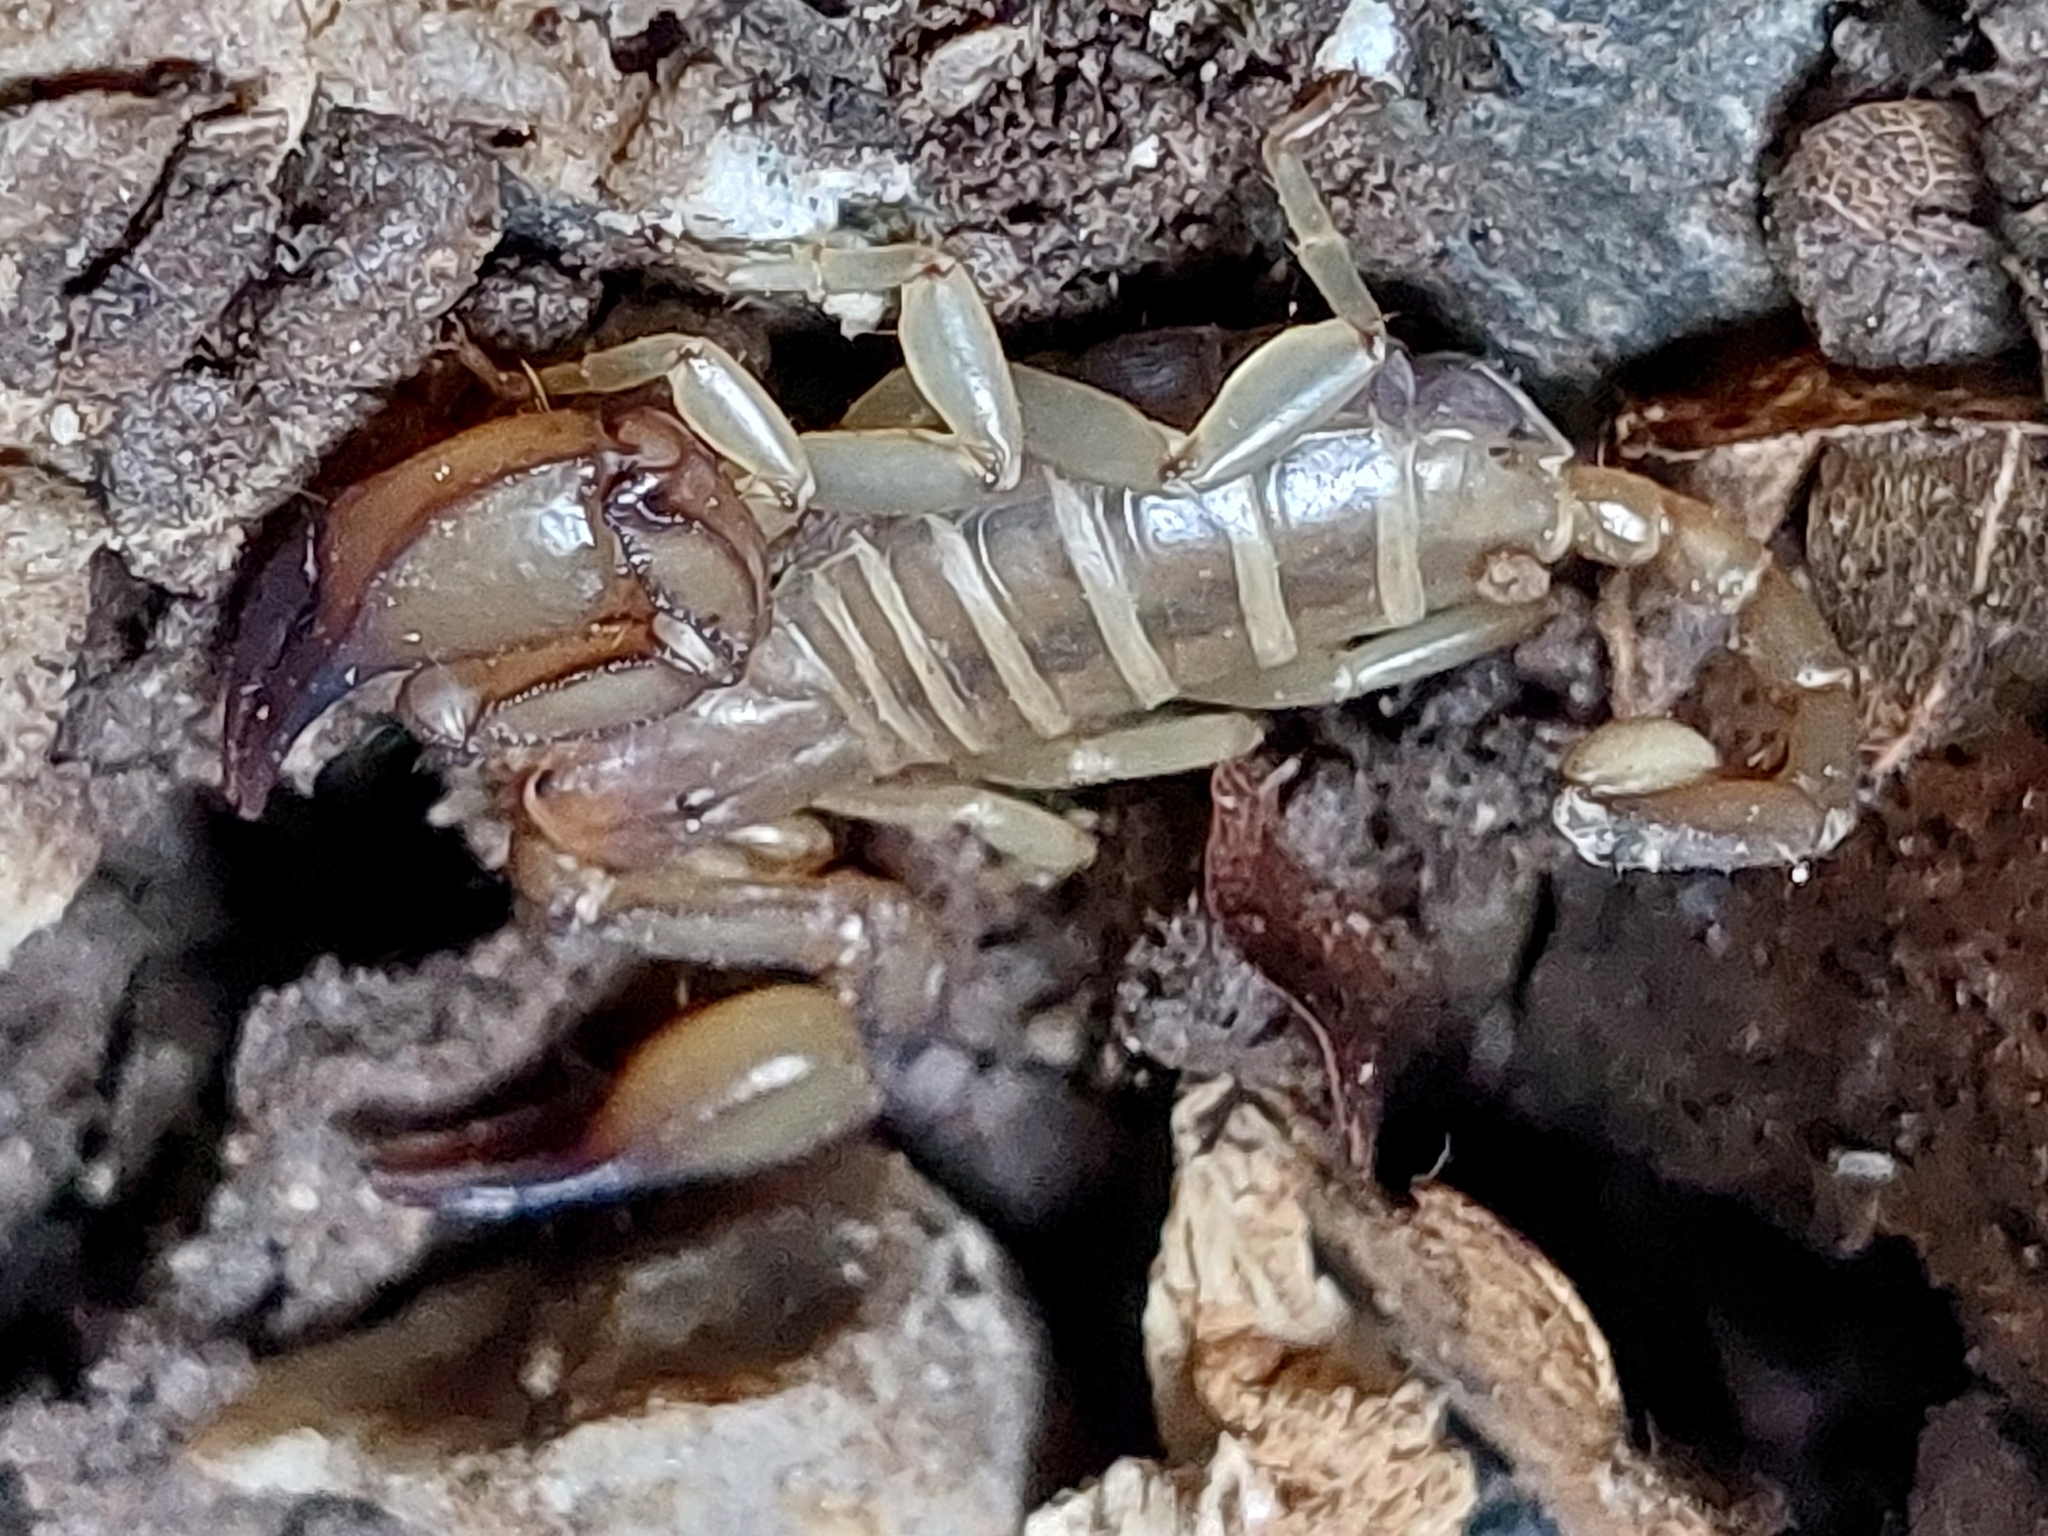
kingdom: Animalia
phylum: Arthropoda
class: Arachnida
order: Scorpiones
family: Euscorpiidae
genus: Euscorpius
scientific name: Euscorpius candiota
